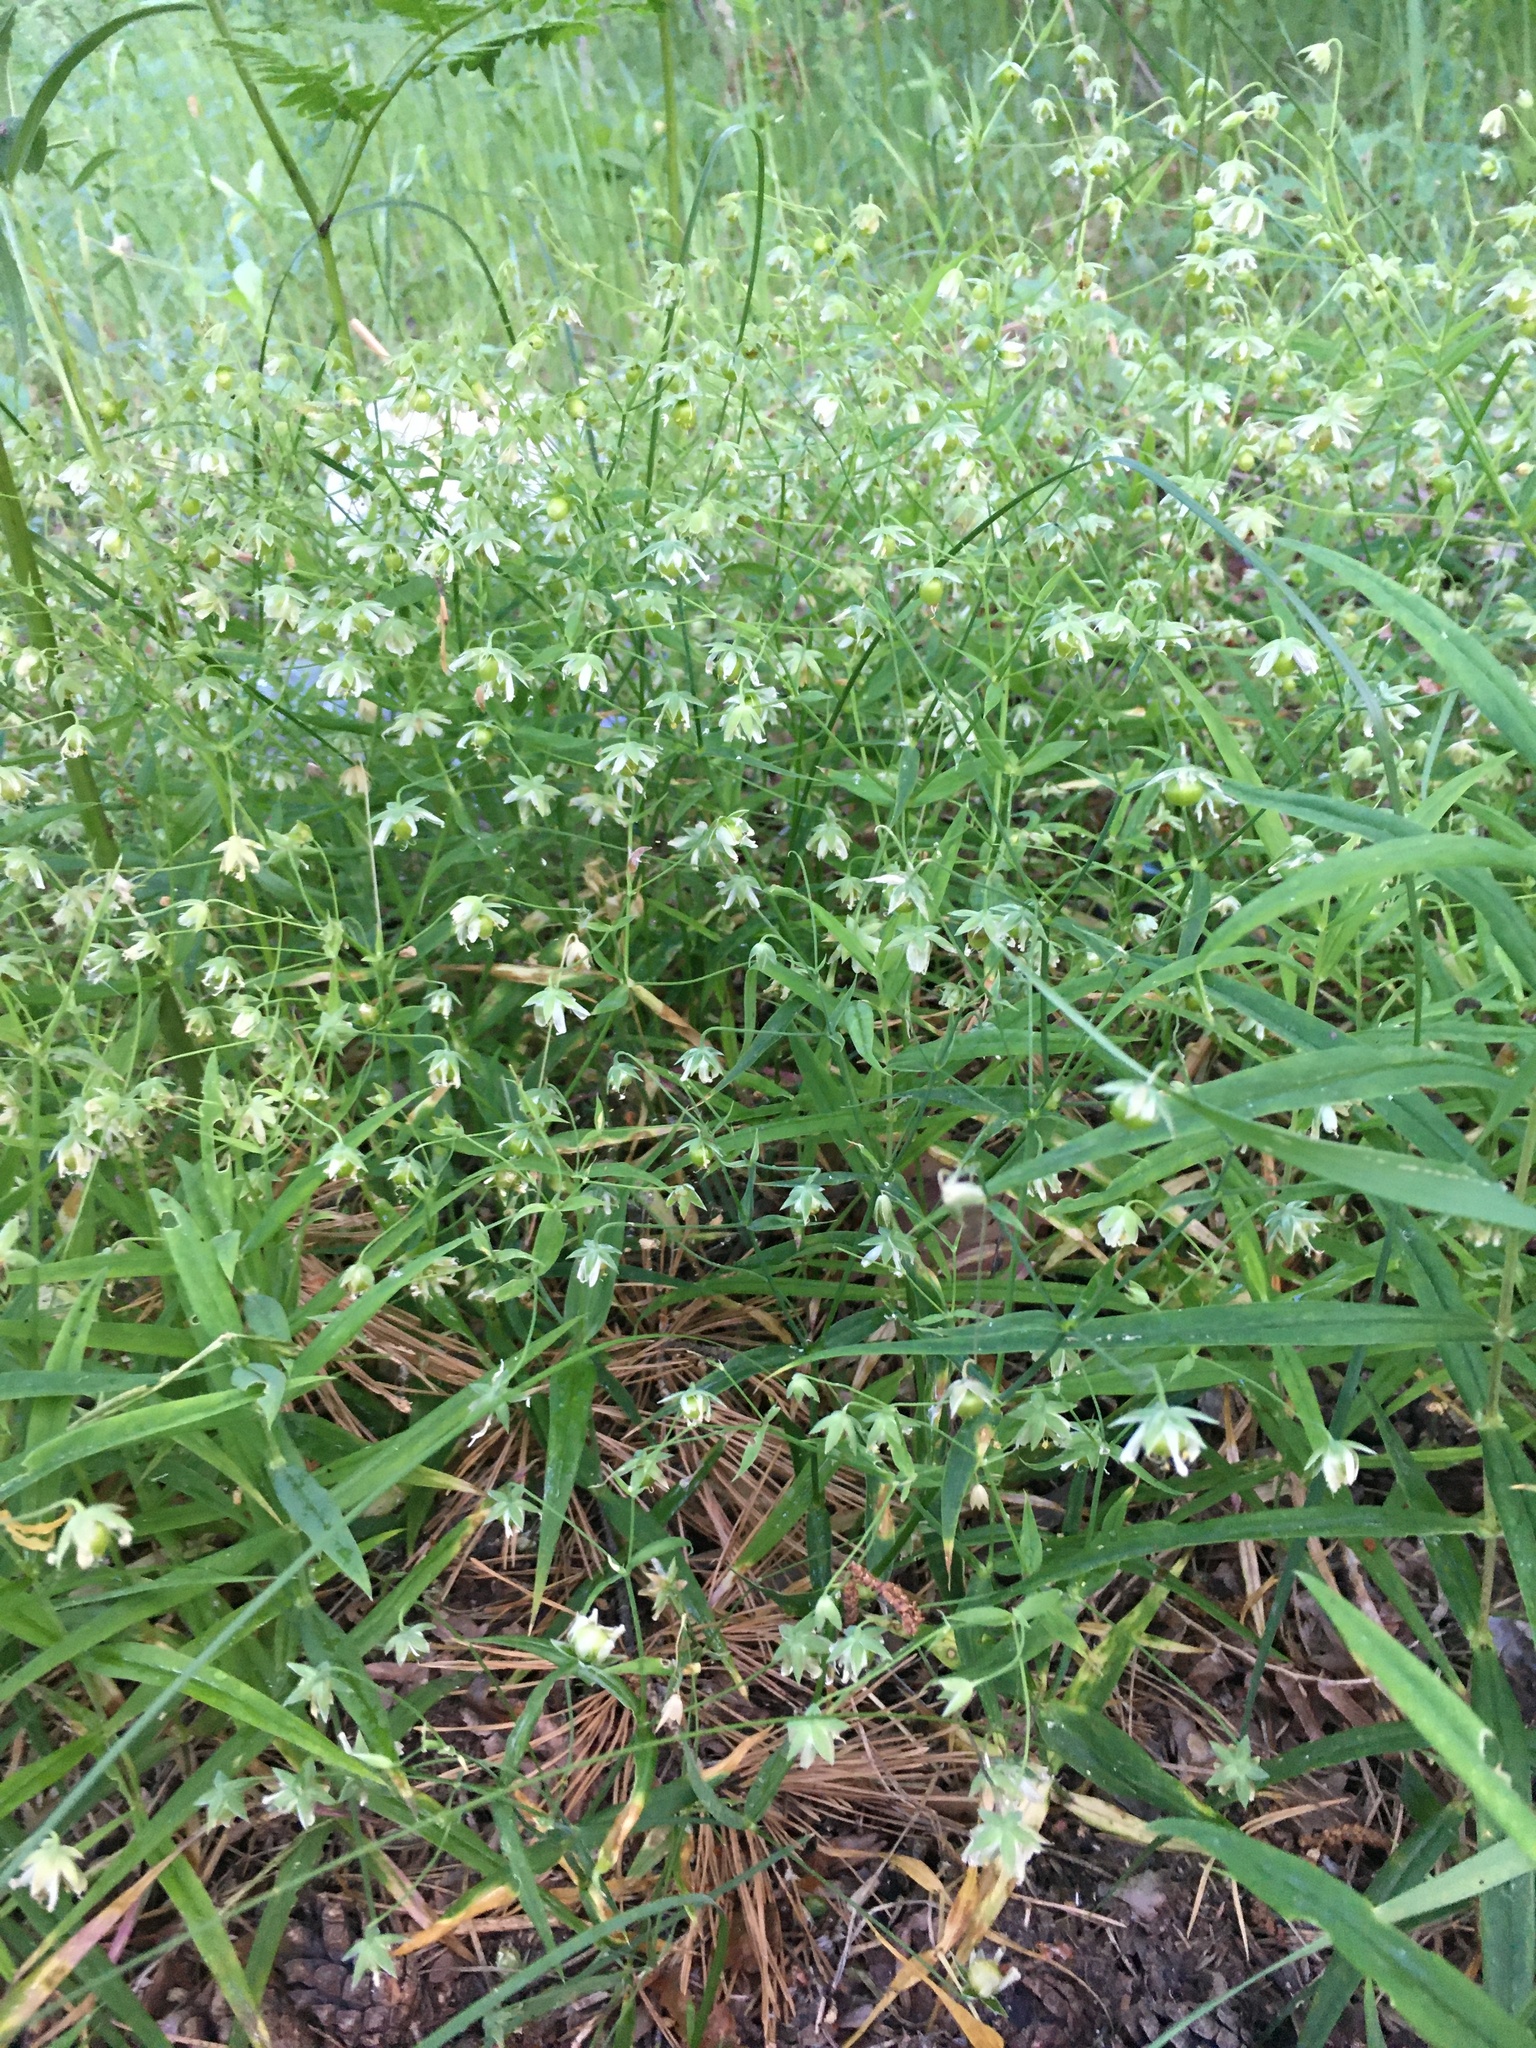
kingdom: Plantae
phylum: Tracheophyta
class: Magnoliopsida
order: Caryophyllales
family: Caryophyllaceae
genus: Rabelera
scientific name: Rabelera holostea
